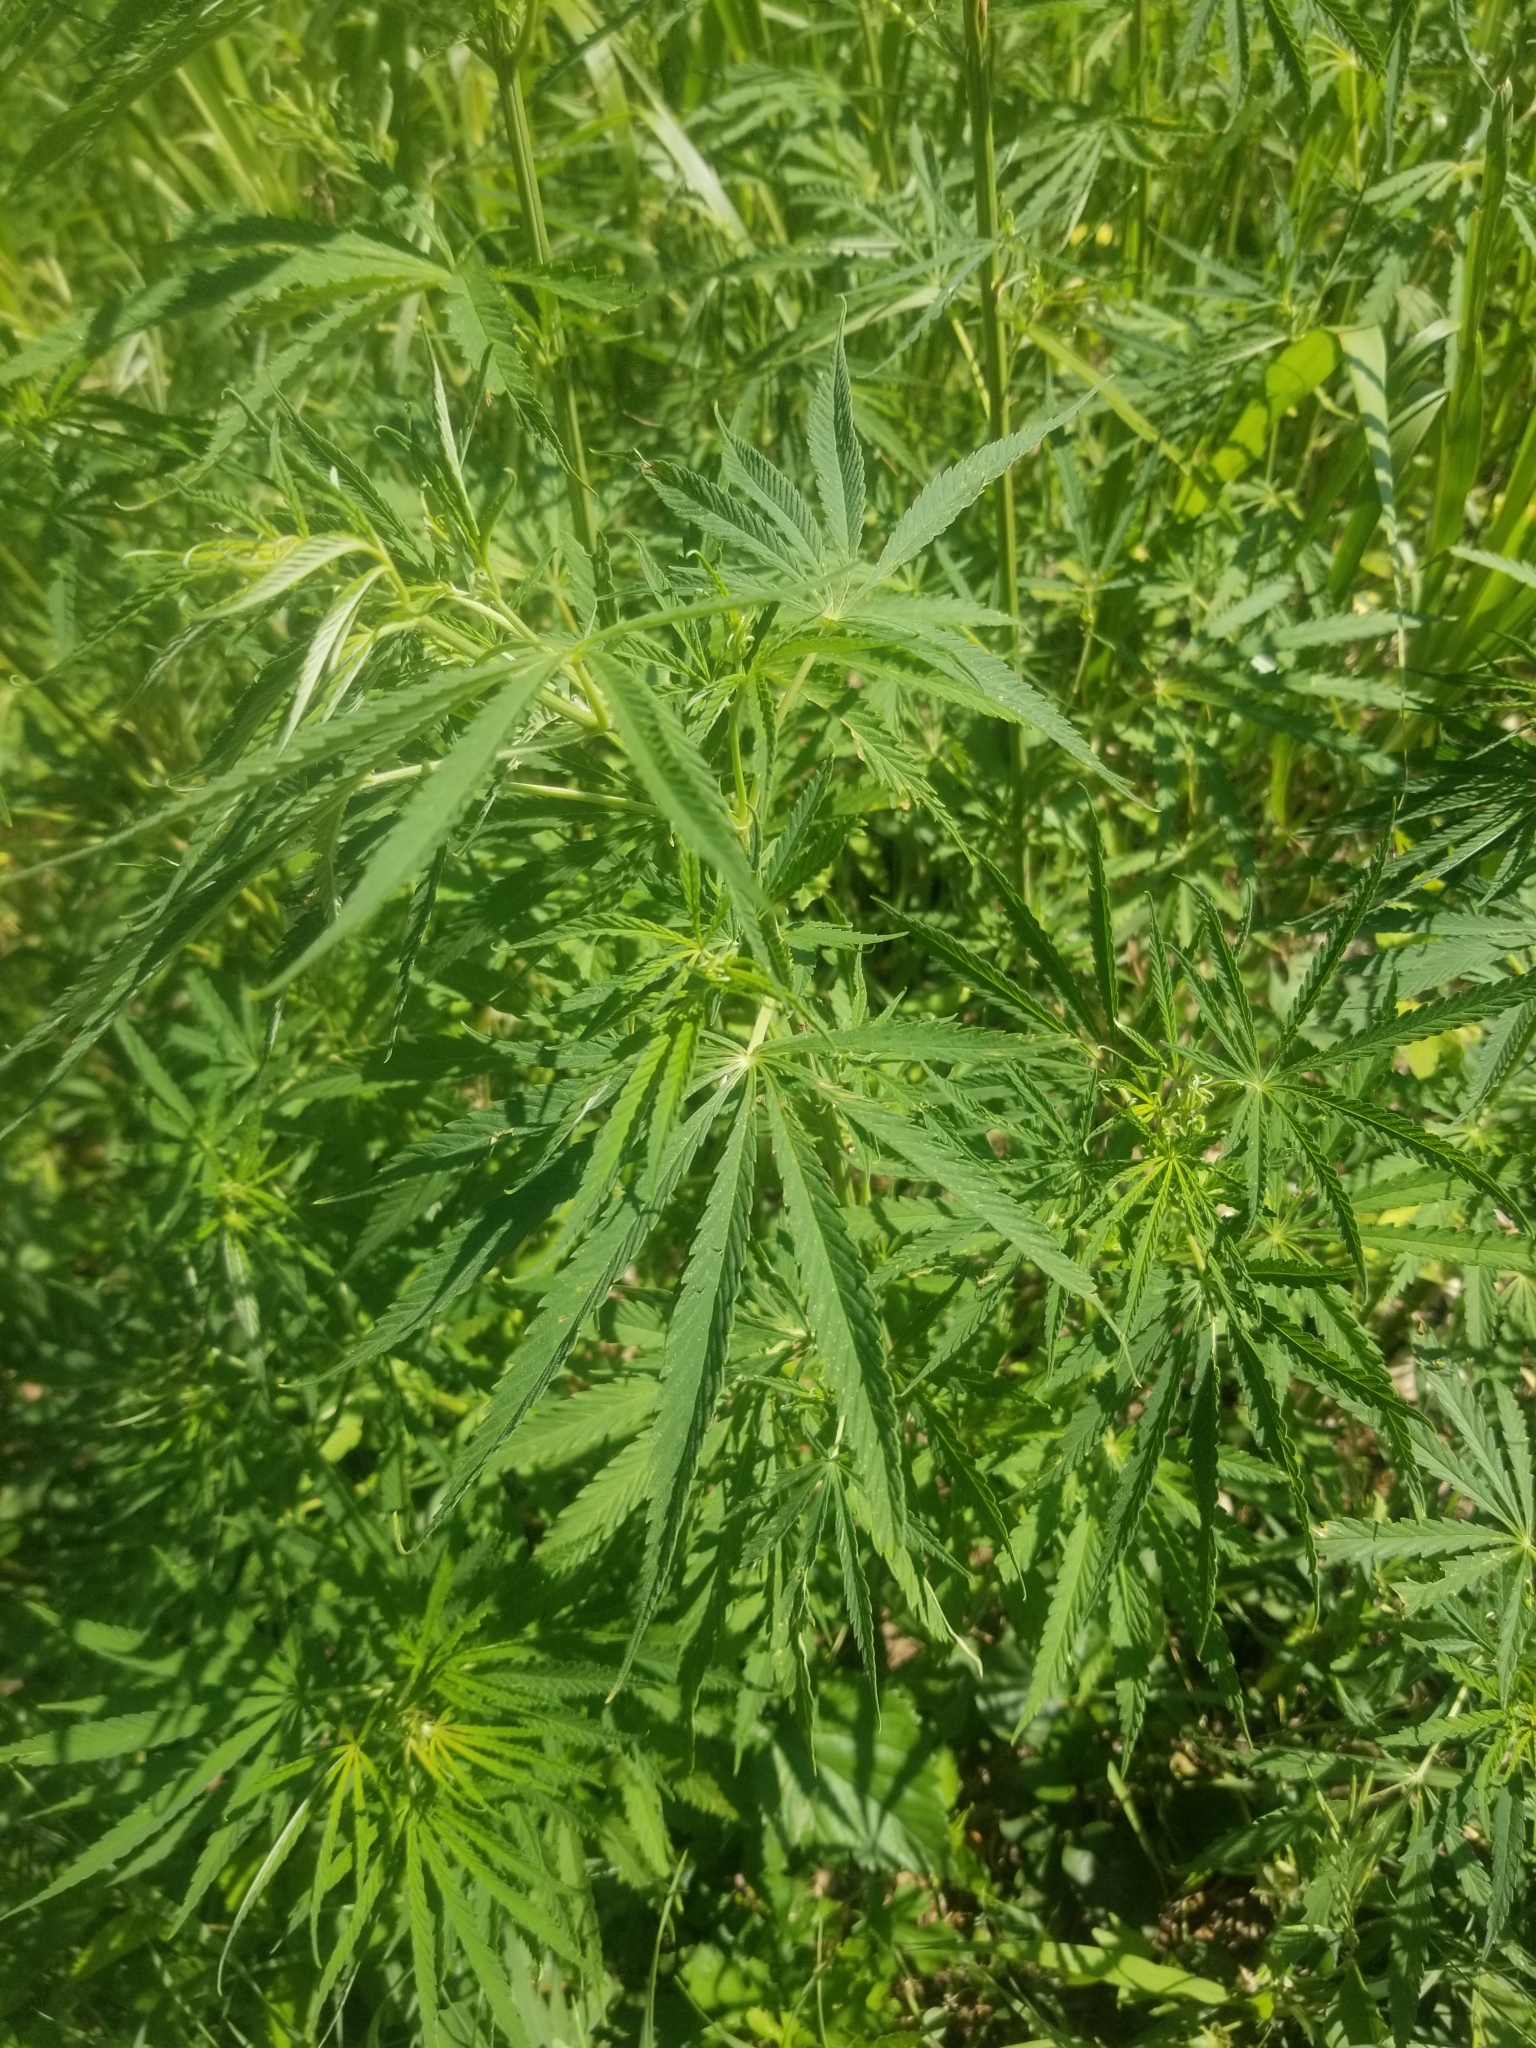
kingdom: Plantae
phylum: Tracheophyta
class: Magnoliopsida
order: Rosales
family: Cannabaceae
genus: Cannabis
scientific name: Cannabis sativa
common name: Hemp
